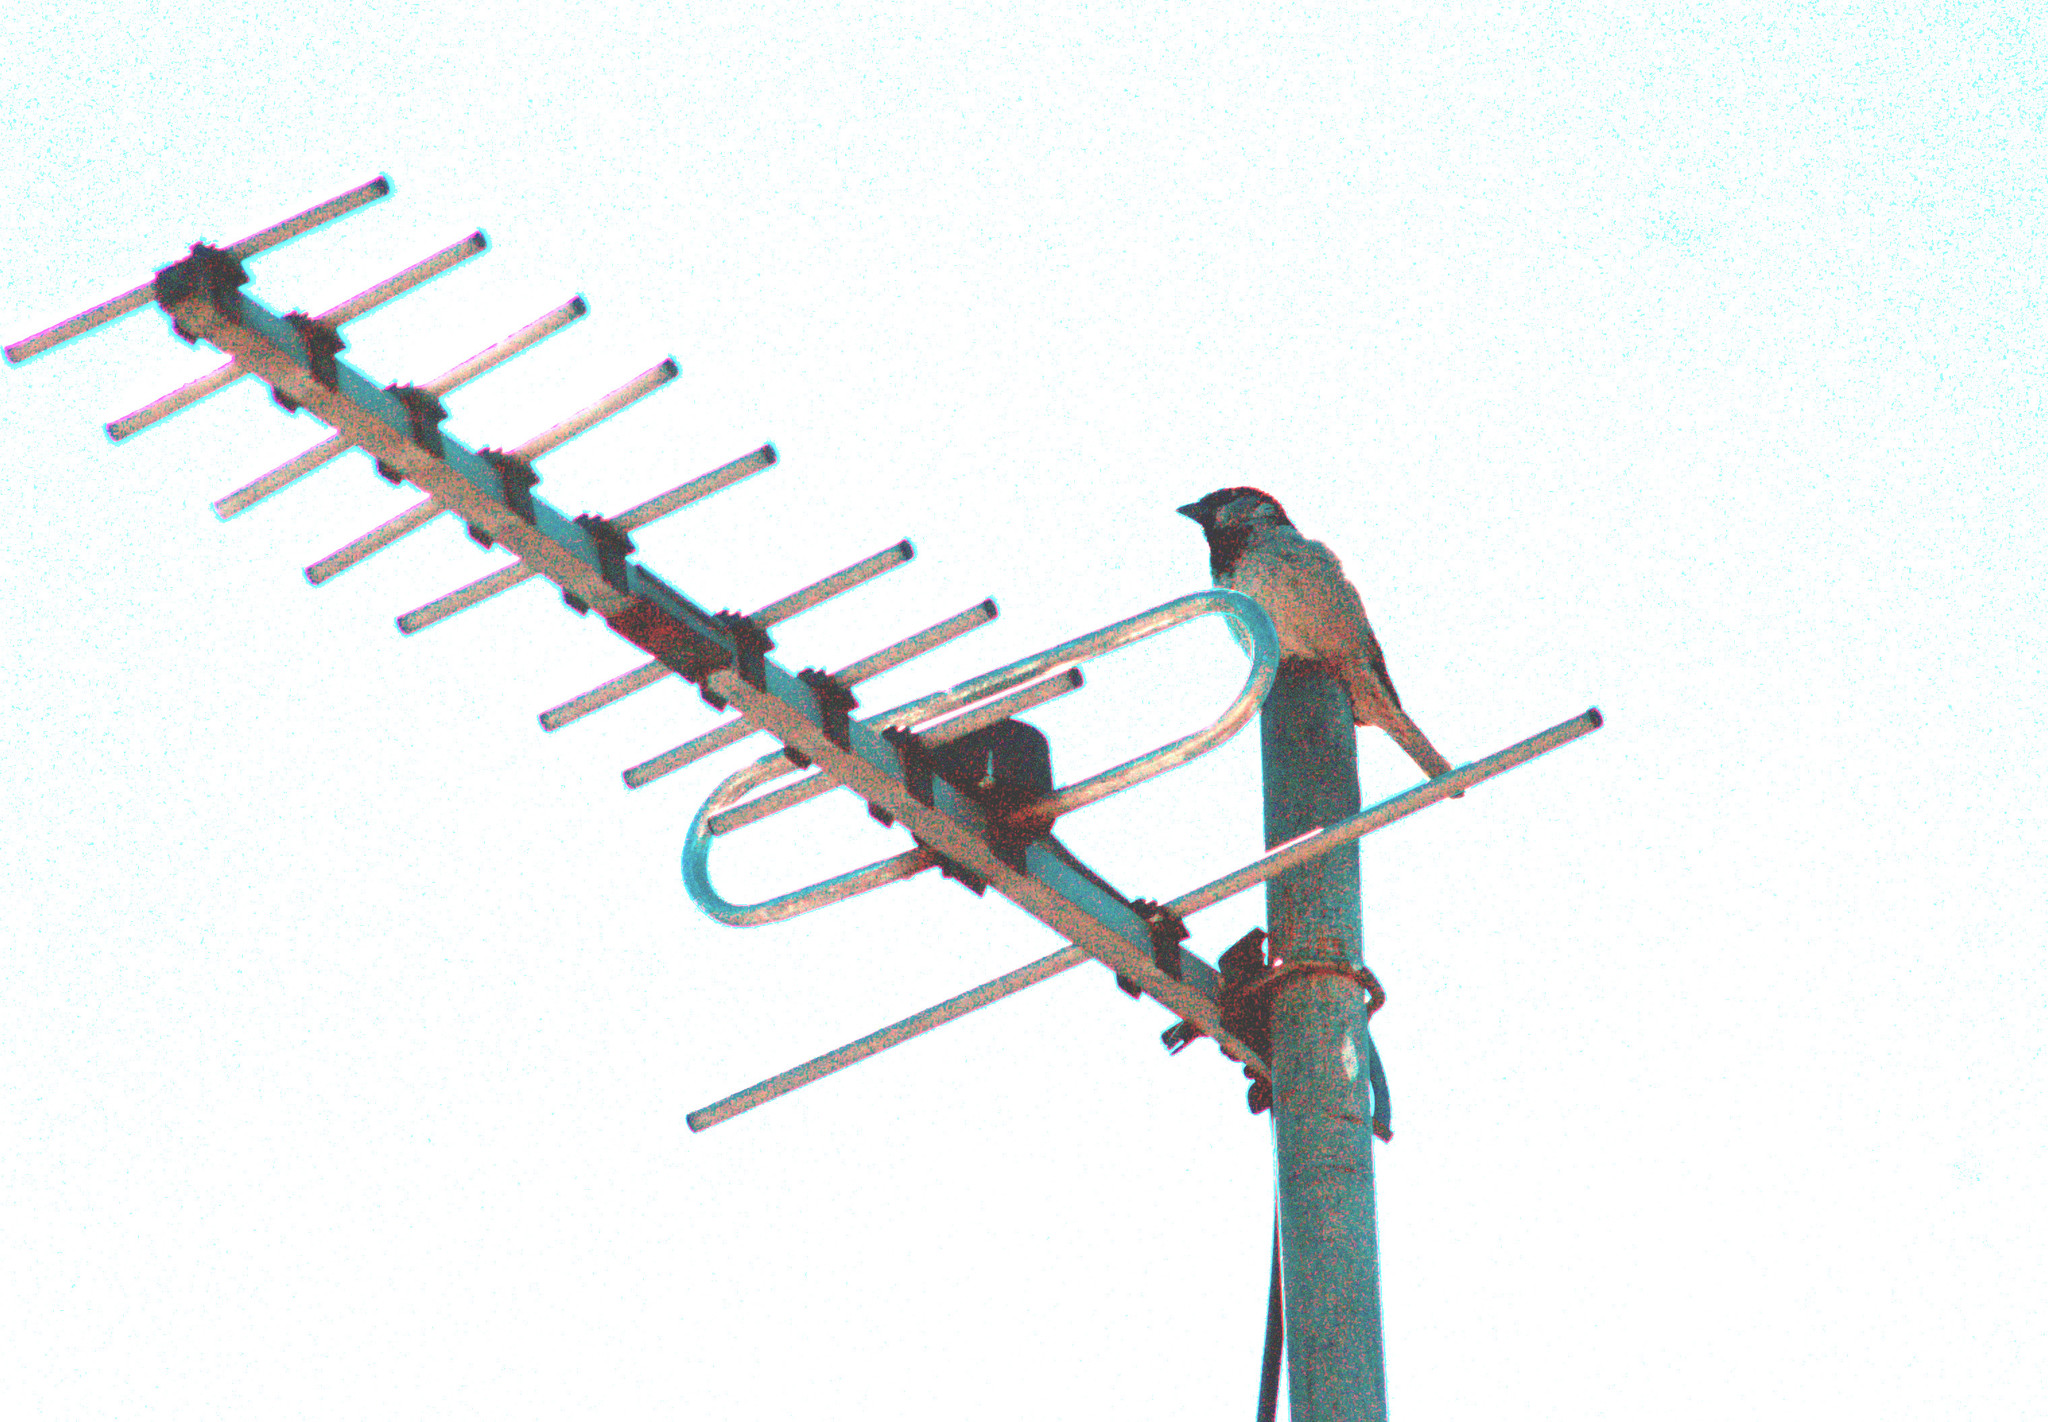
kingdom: Animalia
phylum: Chordata
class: Aves
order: Passeriformes
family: Passeridae
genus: Passer
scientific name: Passer domesticus
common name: House sparrow
